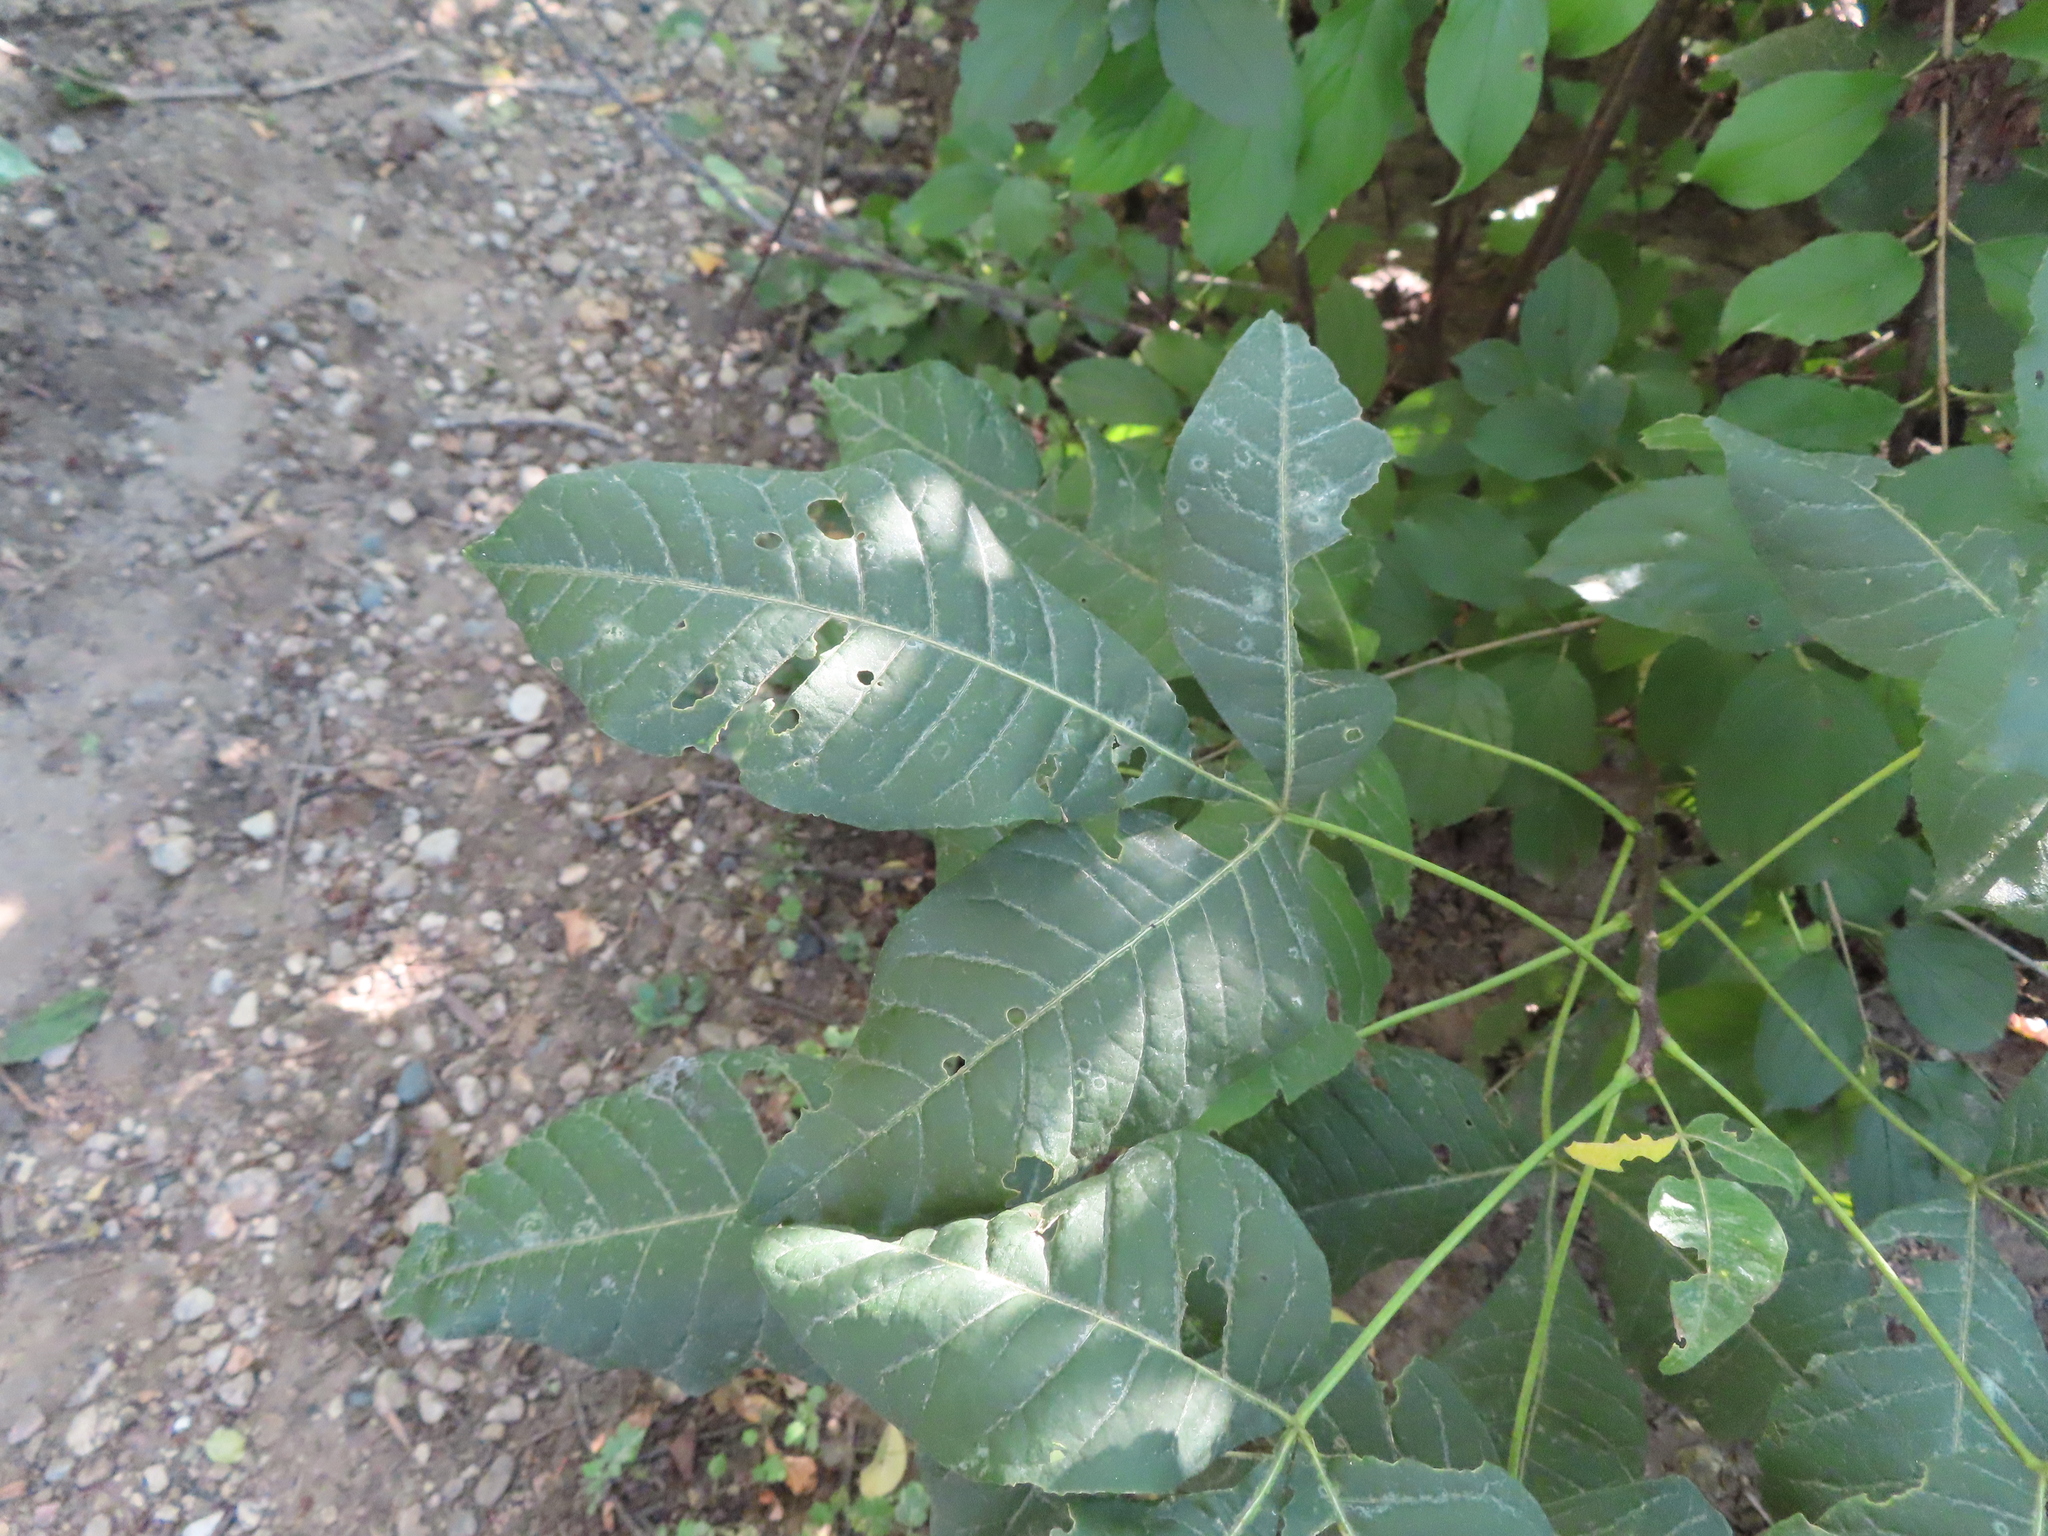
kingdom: Plantae
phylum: Tracheophyta
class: Magnoliopsida
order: Sapindales
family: Rutaceae
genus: Ptelea
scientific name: Ptelea trifoliata
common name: Common hop-tree
